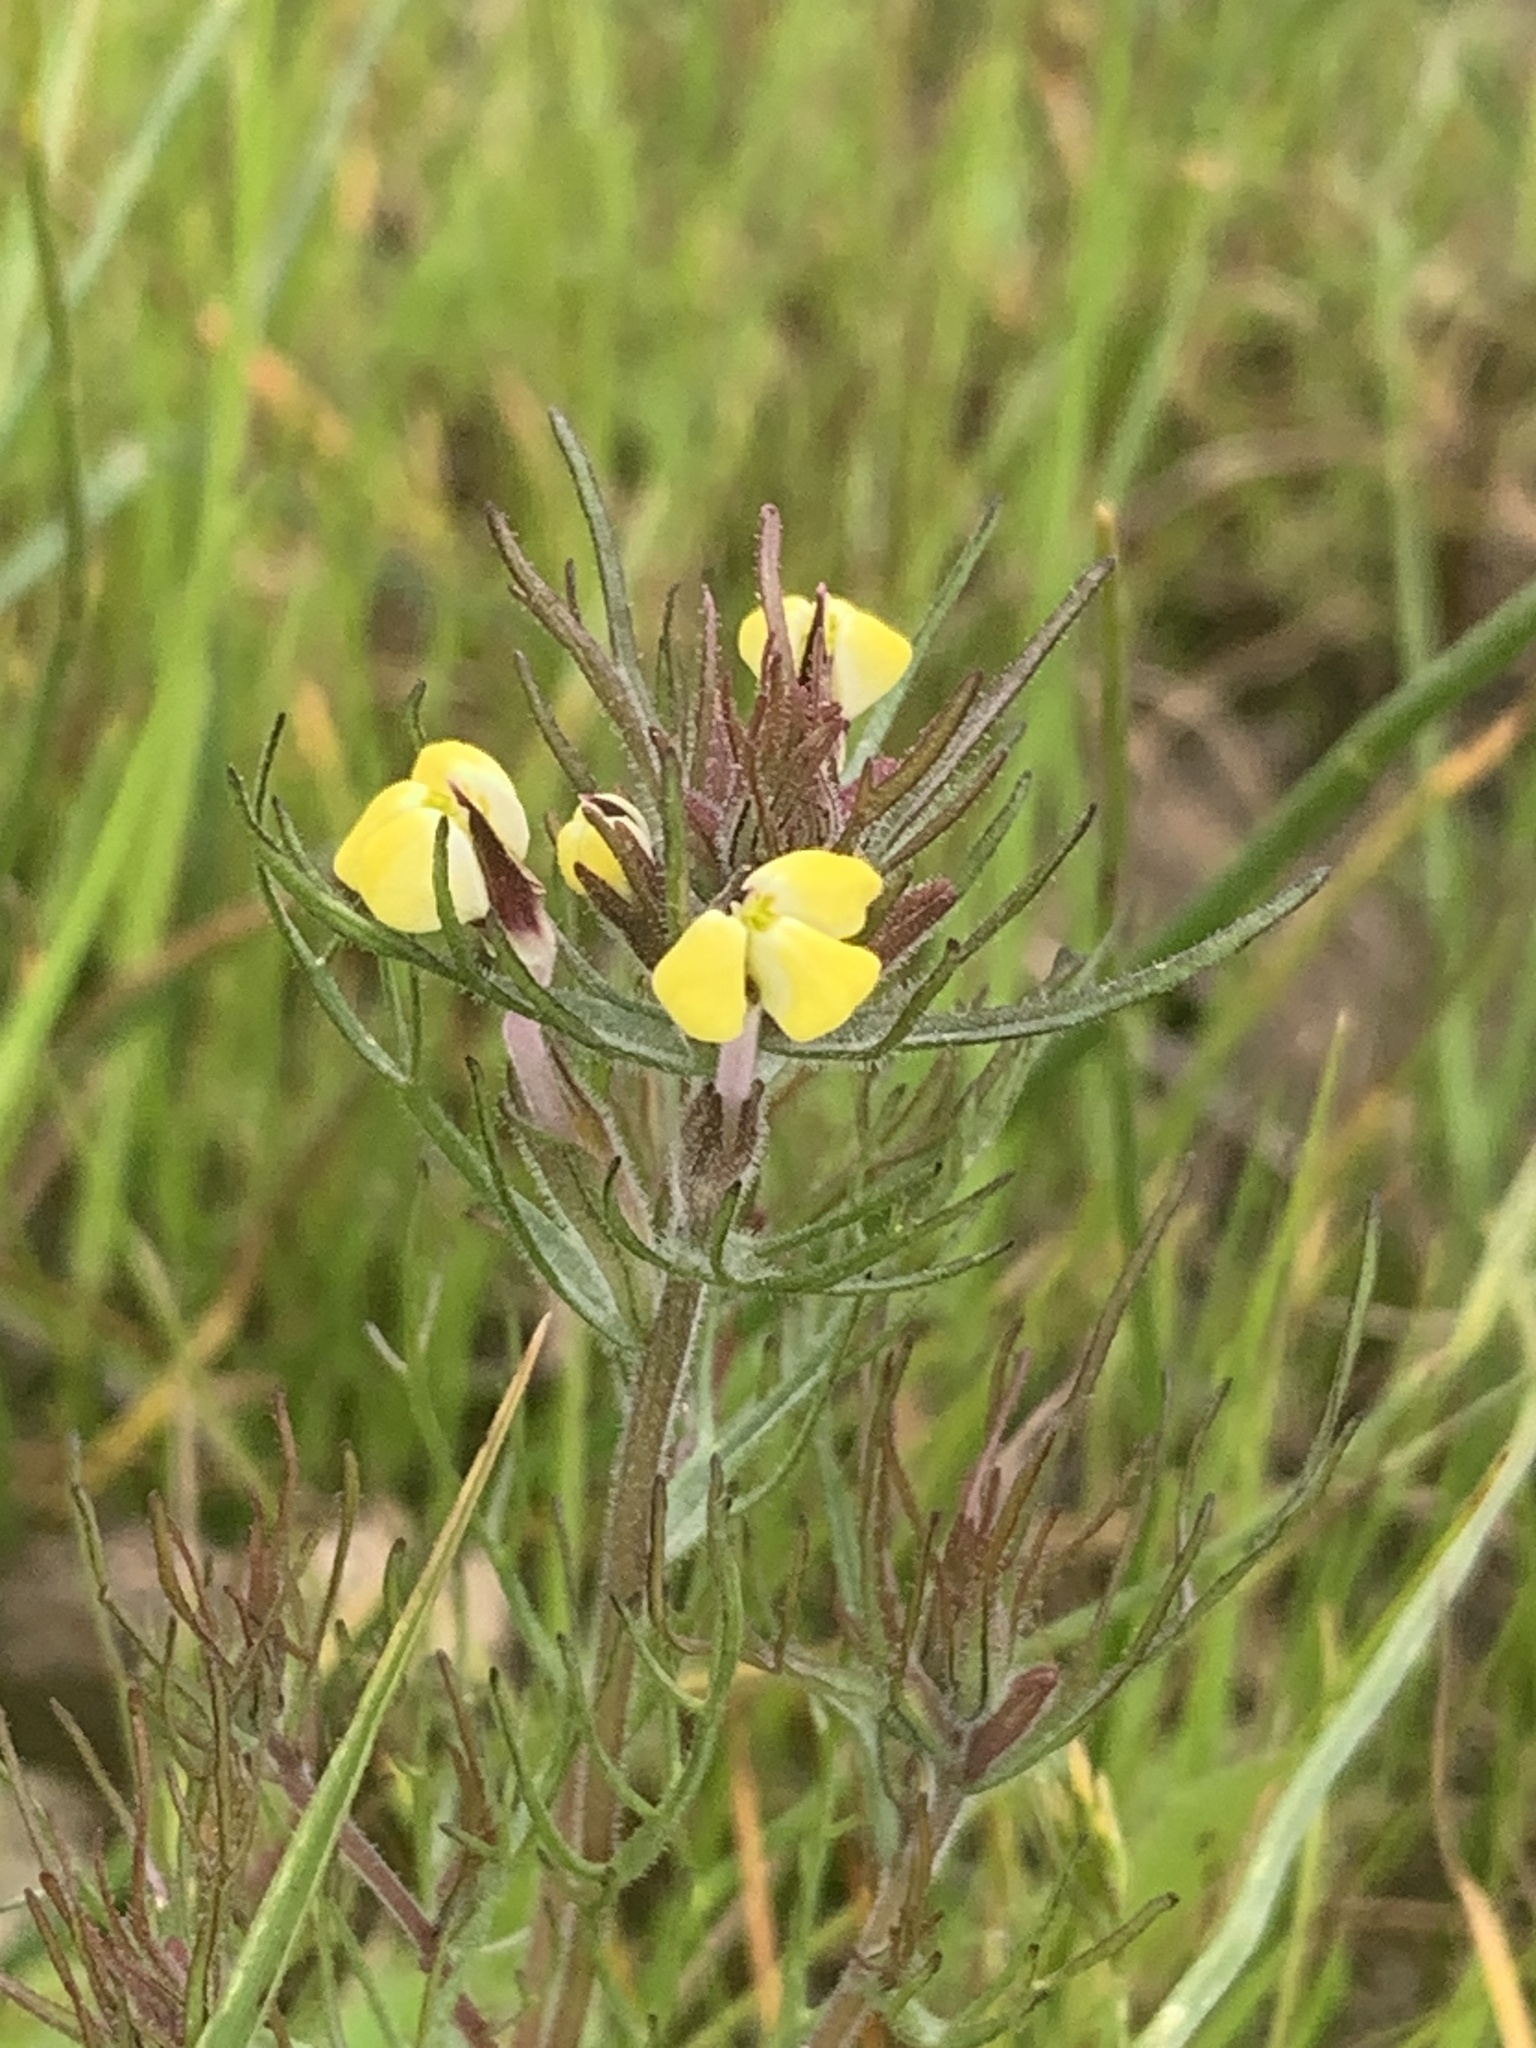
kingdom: Plantae
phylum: Tracheophyta
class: Magnoliopsida
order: Lamiales
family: Orobanchaceae
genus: Triphysaria
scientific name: Triphysaria eriantha
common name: Johnny-tuck
